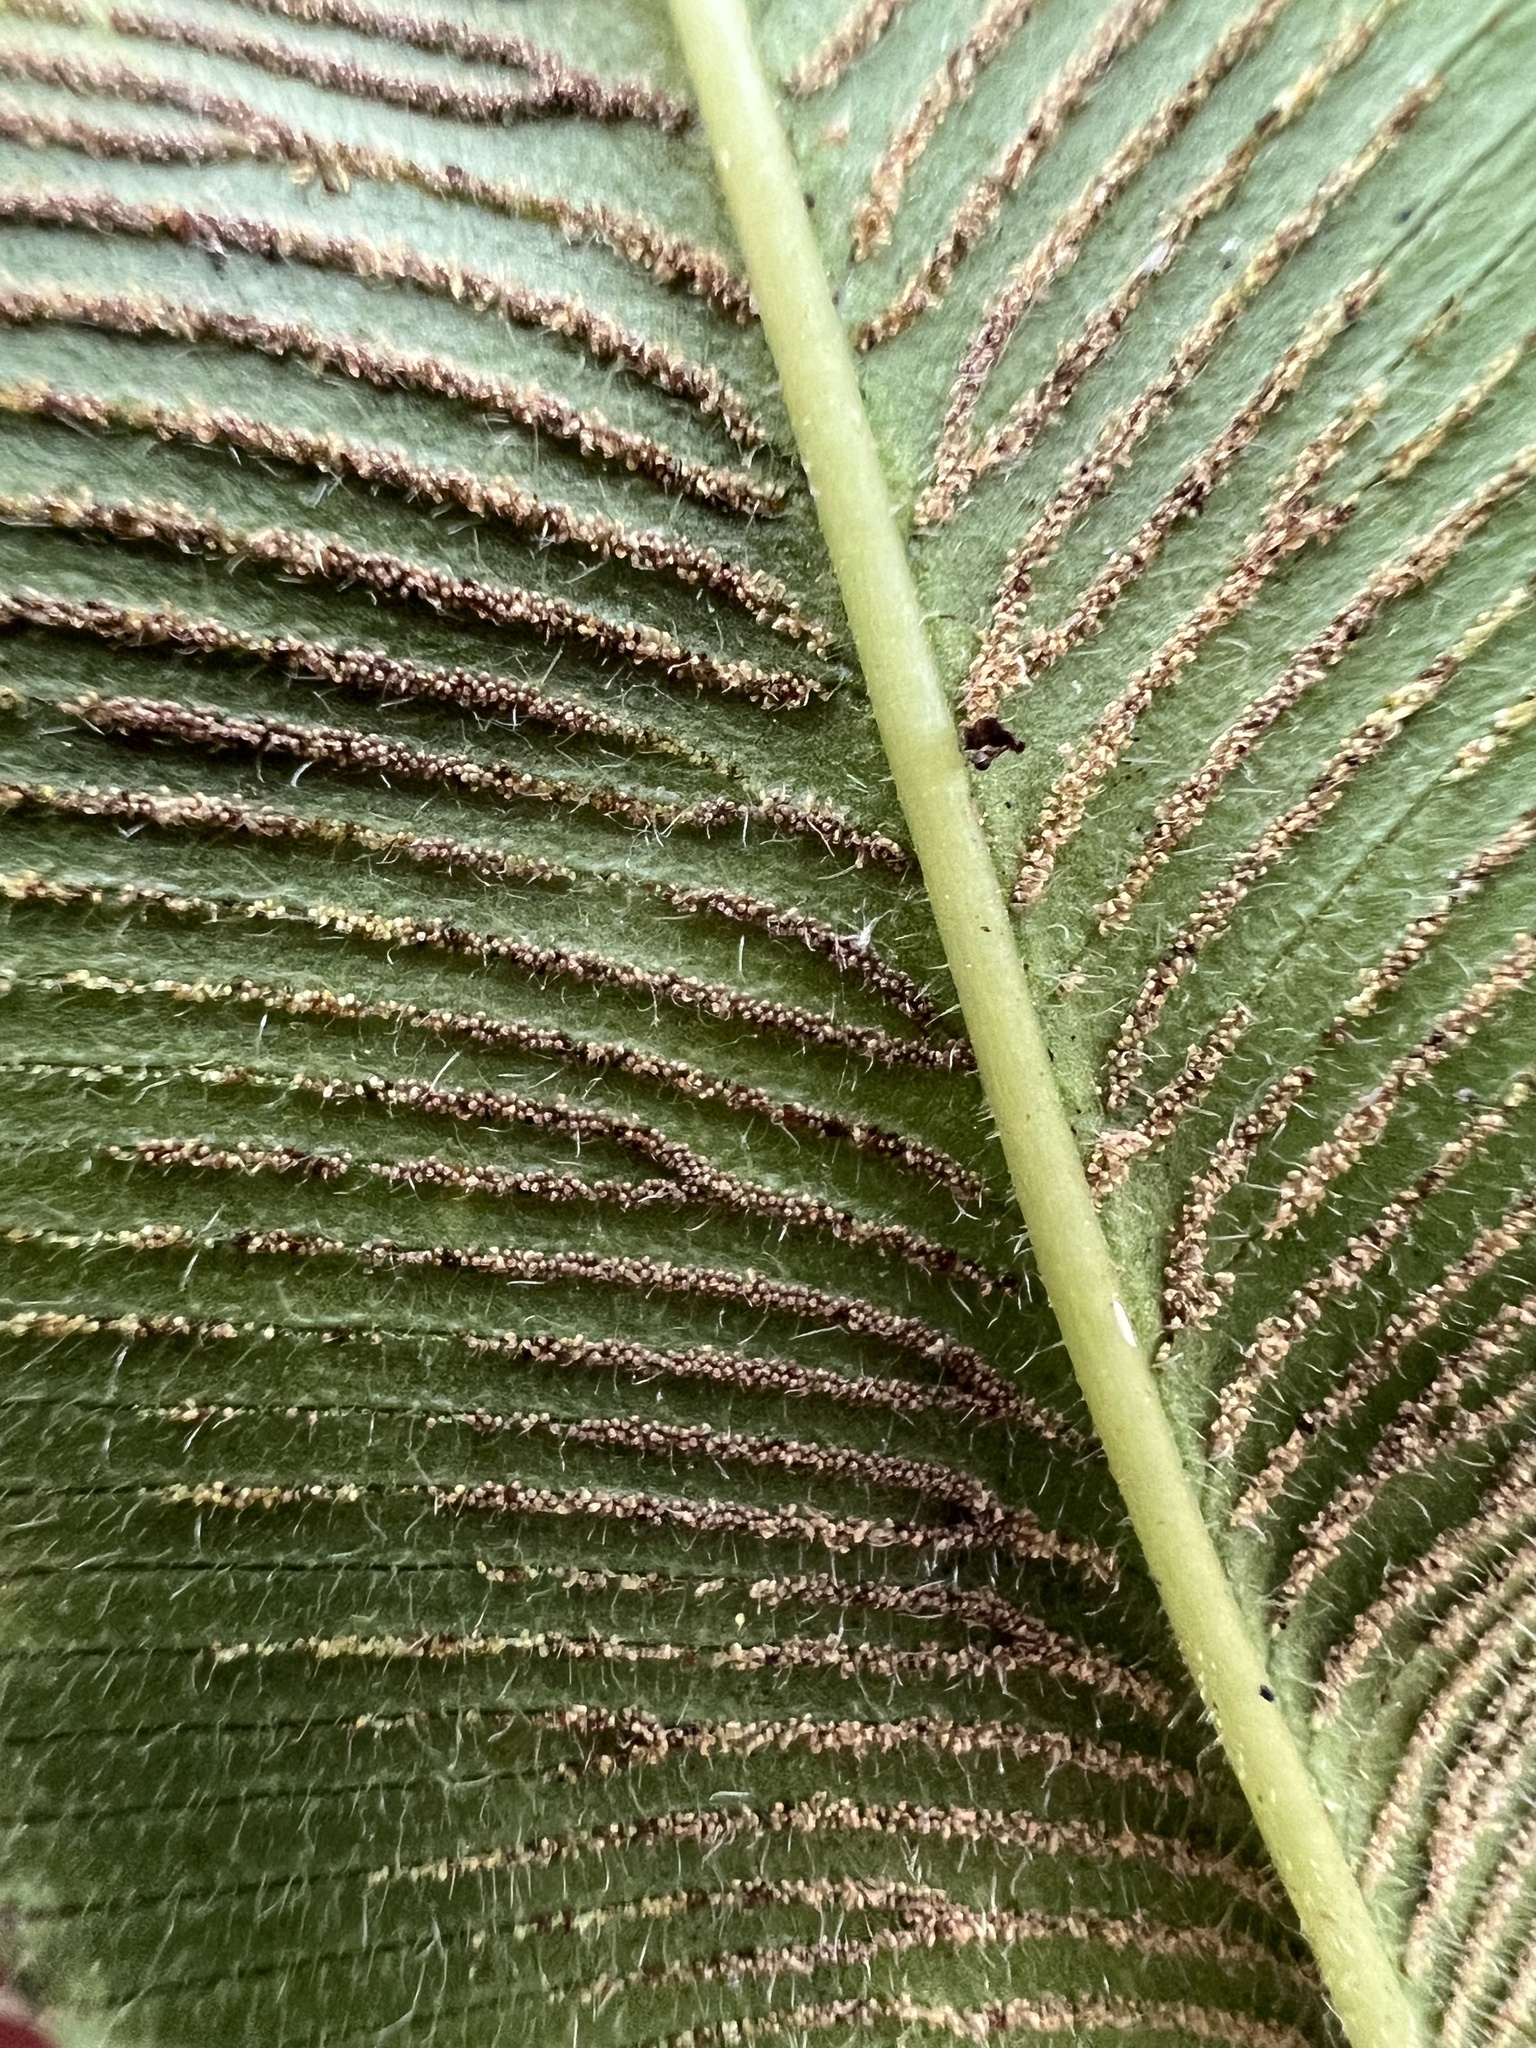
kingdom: Plantae
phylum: Tracheophyta
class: Polypodiopsida
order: Polypodiales
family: Pteridaceae
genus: Coniogramme
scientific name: Coniogramme pubescens
